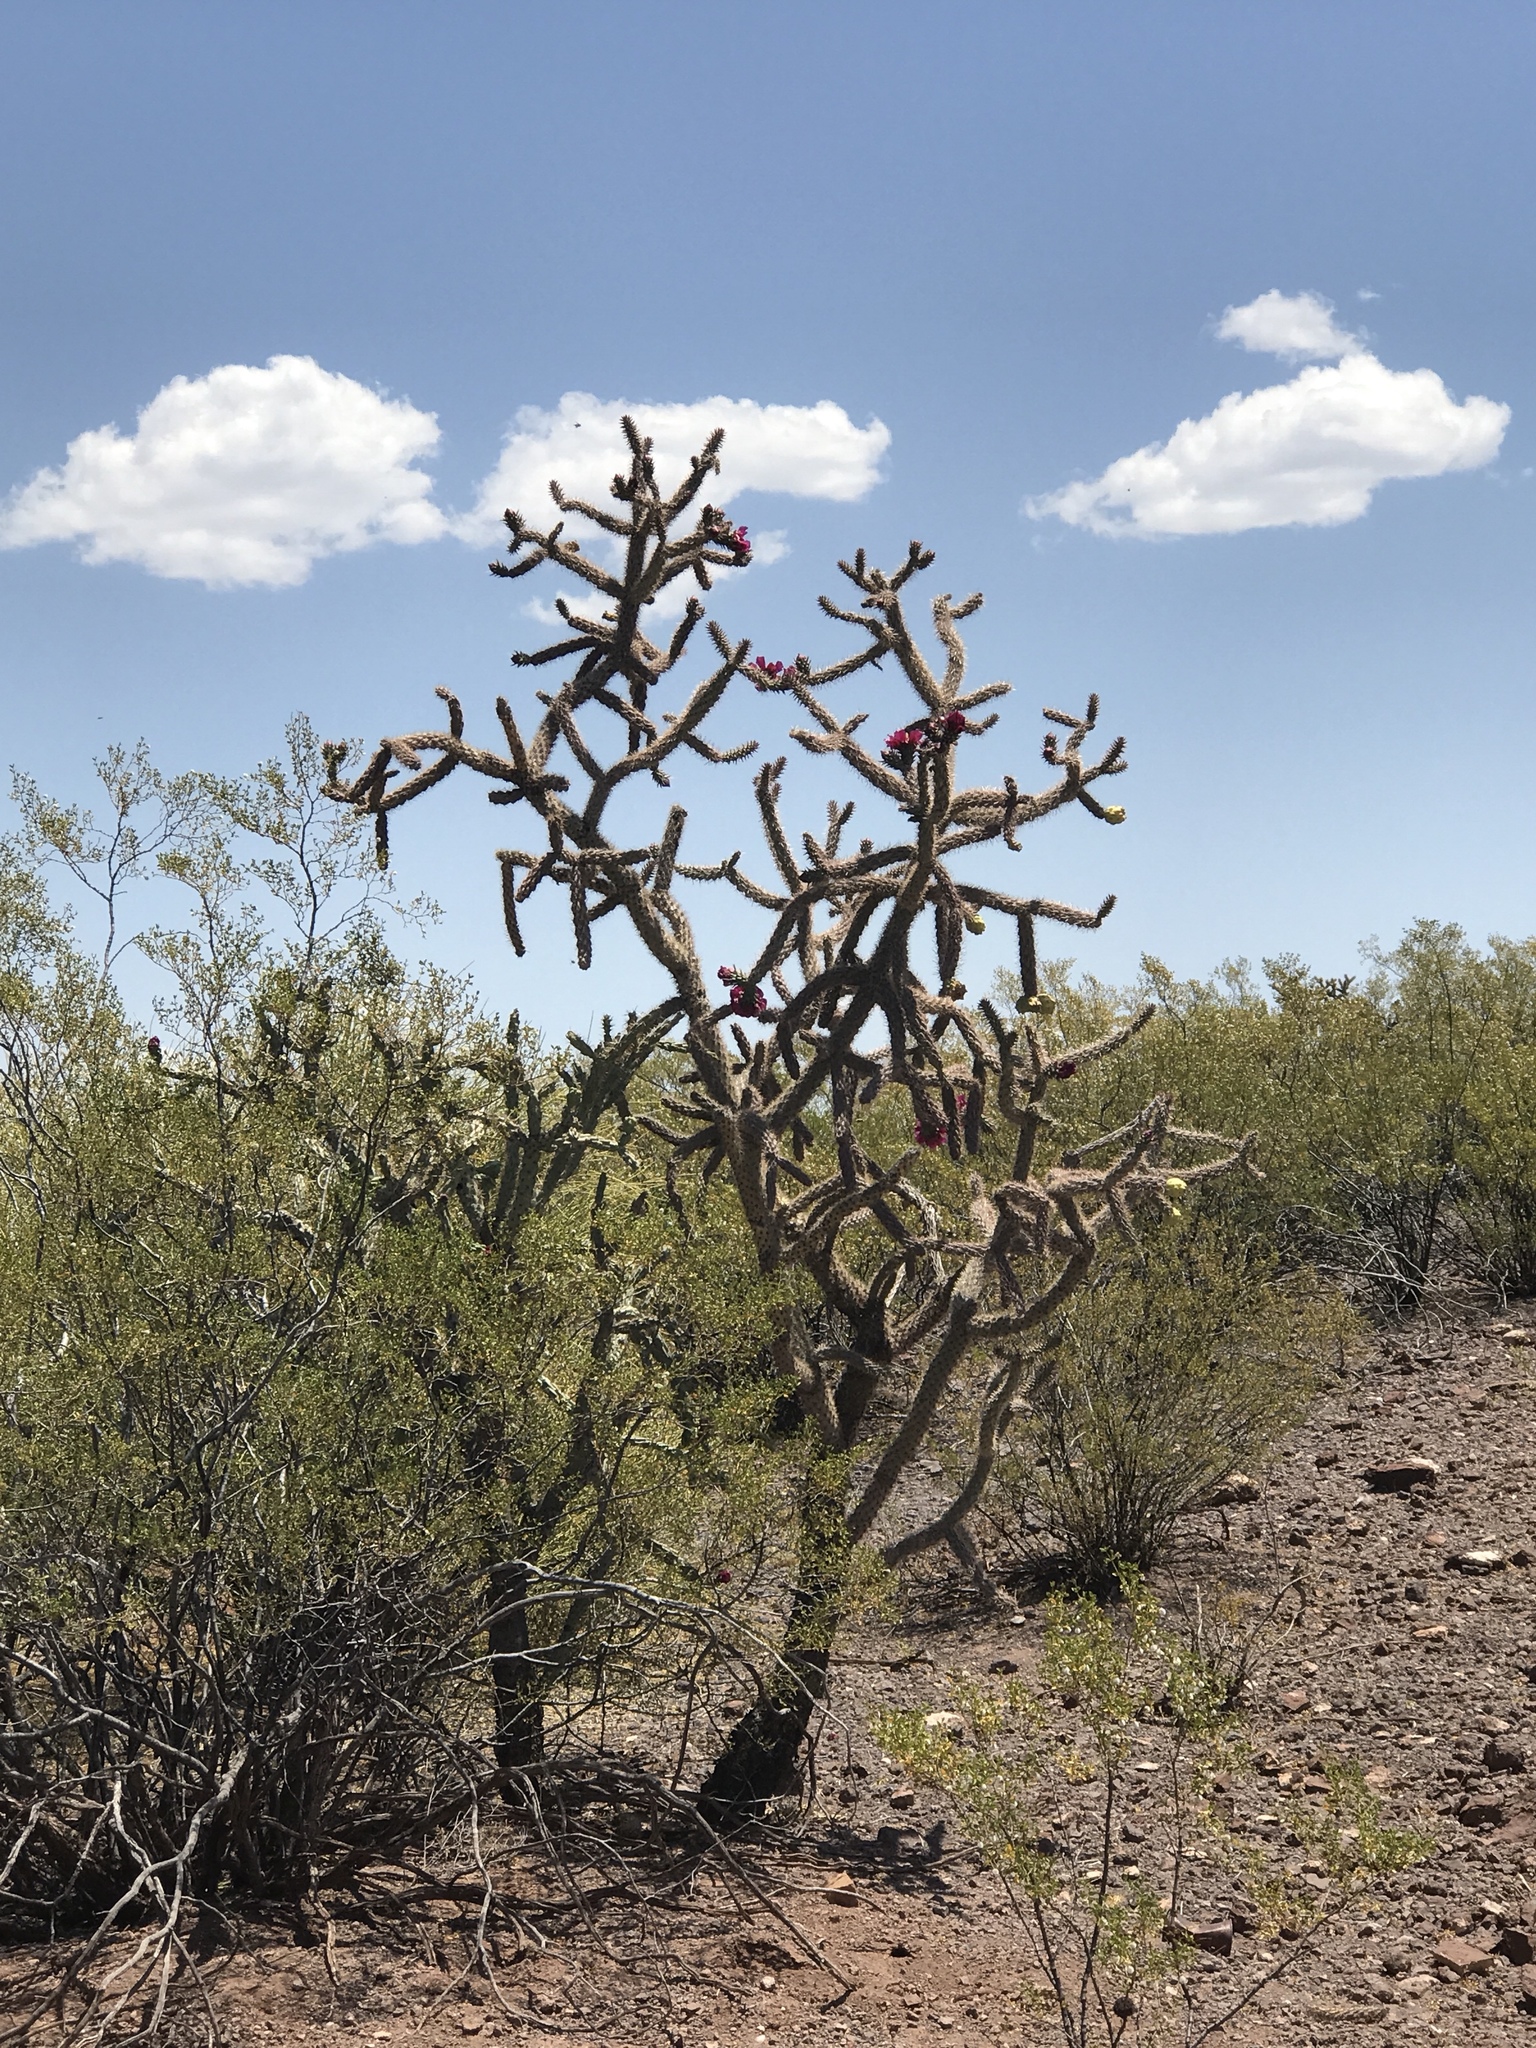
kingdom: Plantae
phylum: Tracheophyta
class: Magnoliopsida
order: Caryophyllales
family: Cactaceae
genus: Cylindropuntia
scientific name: Cylindropuntia imbricata
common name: Candelabrum cactus
